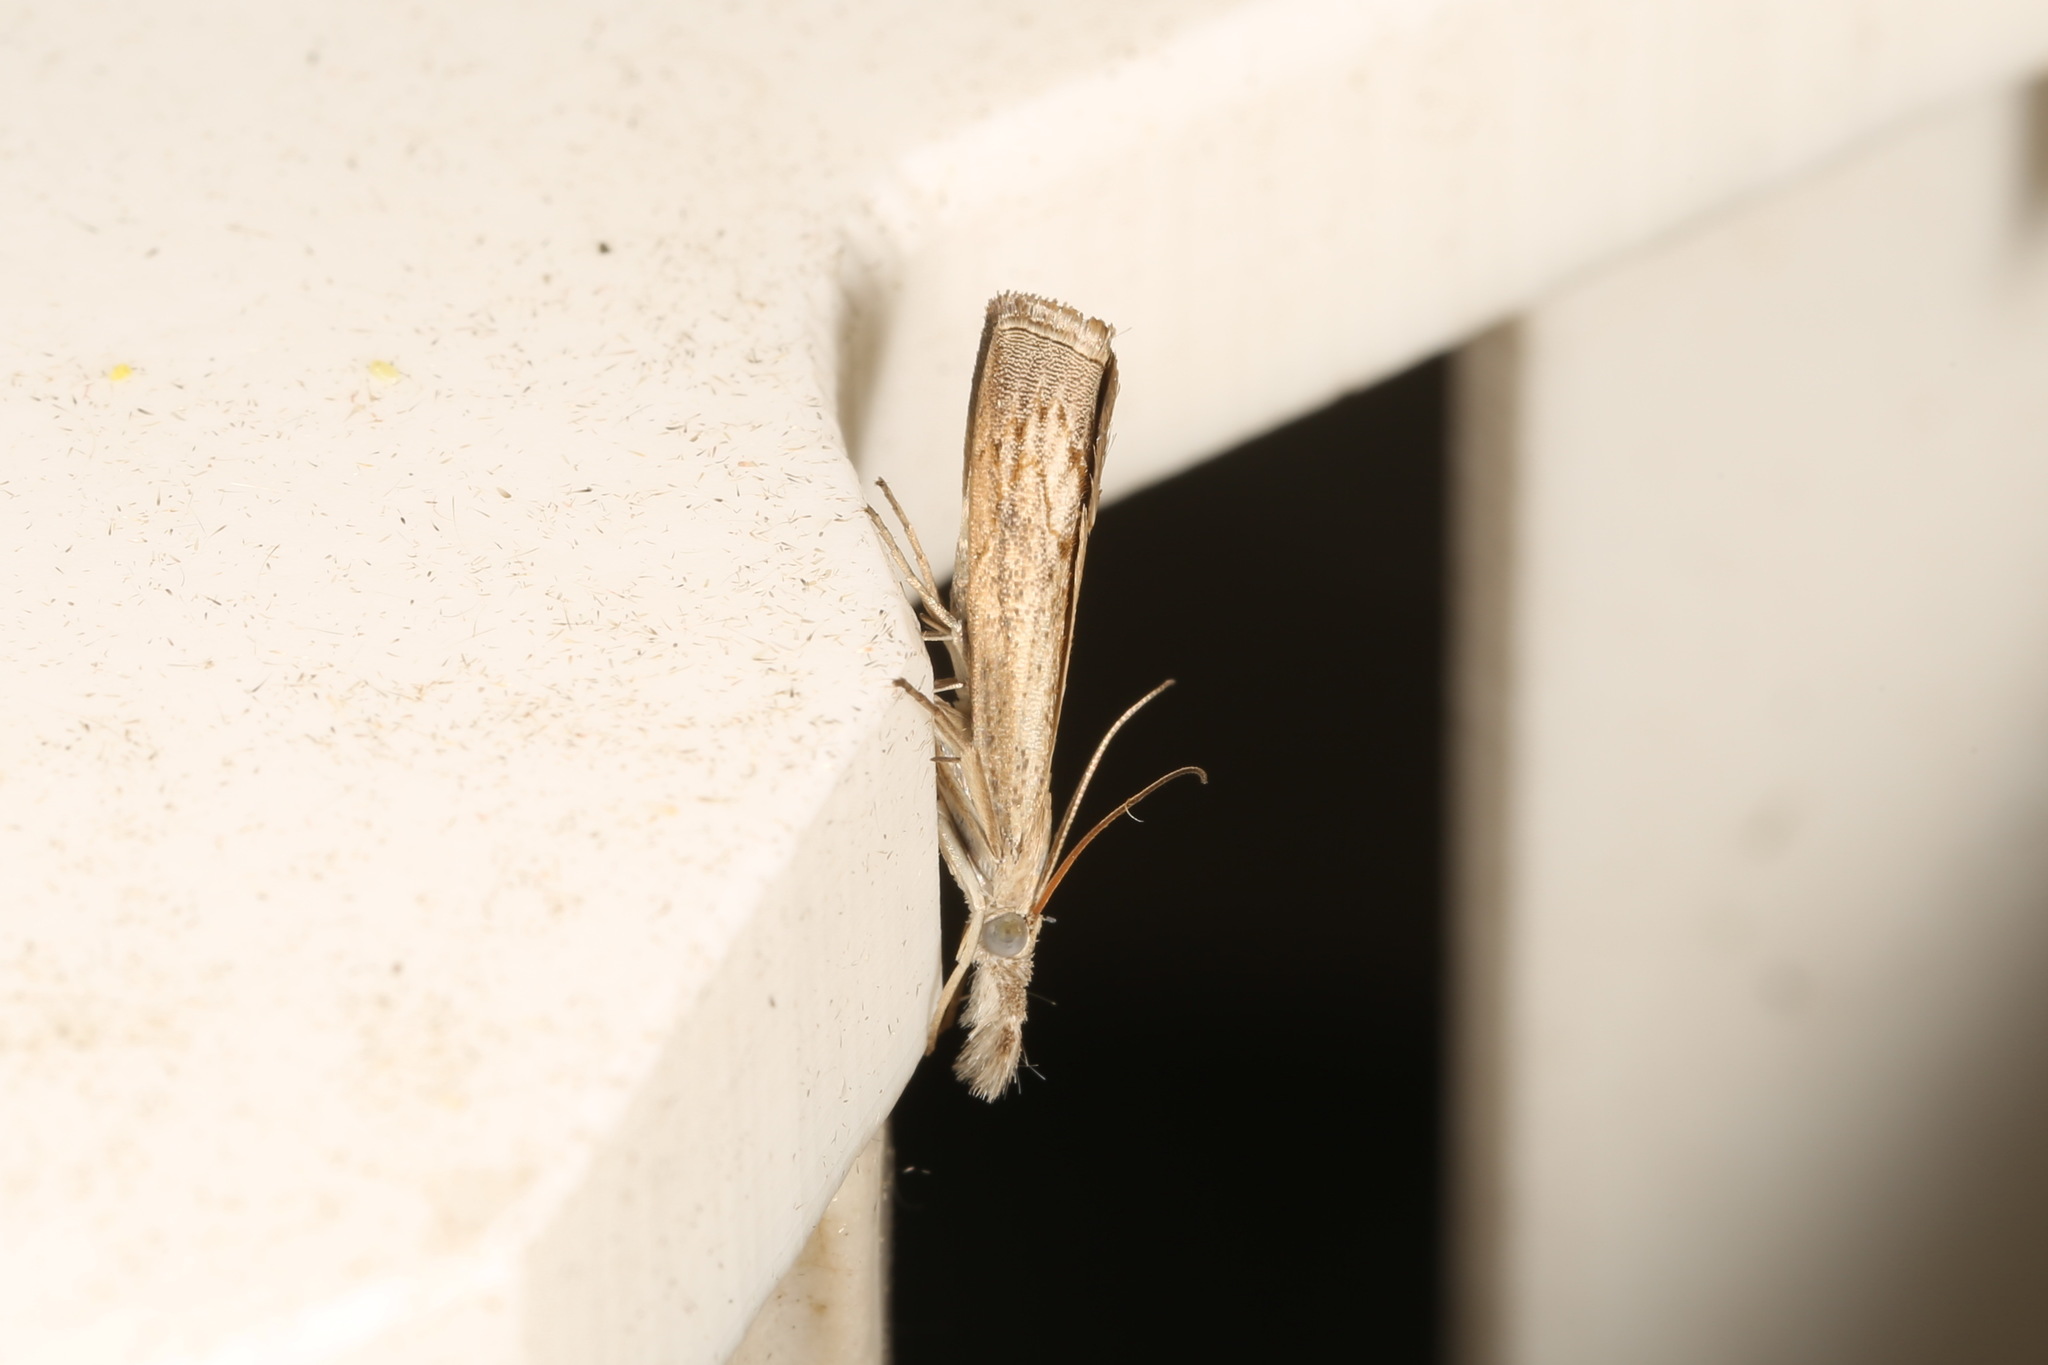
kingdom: Animalia
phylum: Arthropoda
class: Insecta
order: Lepidoptera
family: Crambidae
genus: Culladia
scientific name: Culladia cuneiferellus
